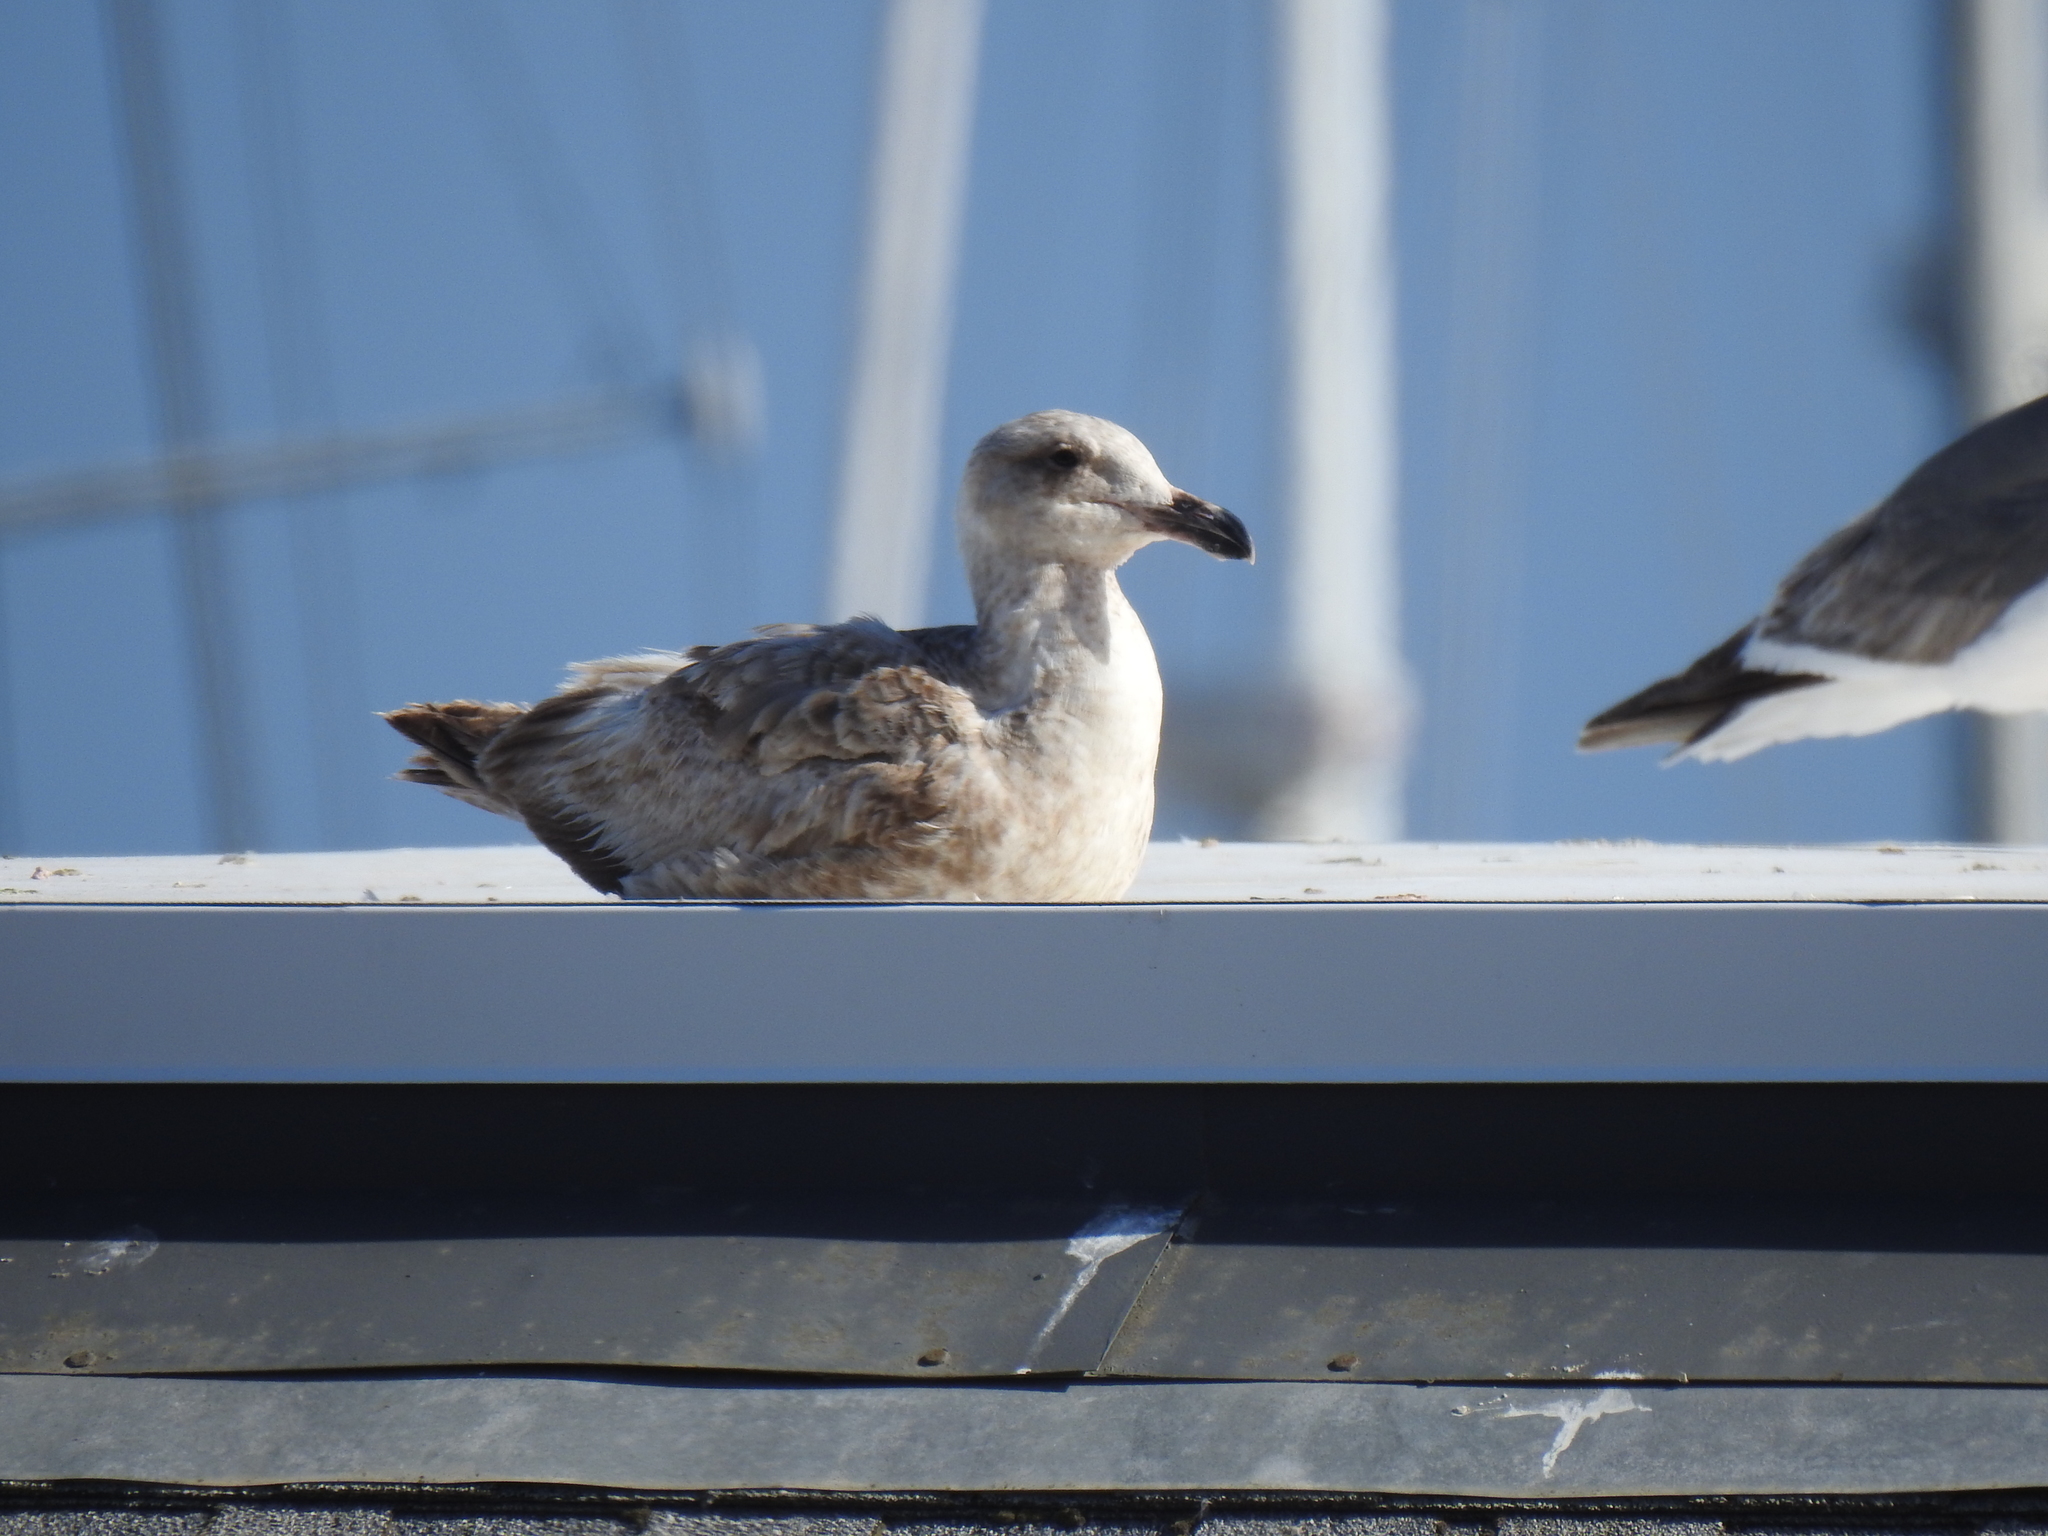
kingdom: Animalia
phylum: Chordata
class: Aves
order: Charadriiformes
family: Laridae
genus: Larus
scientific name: Larus occidentalis
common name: Western gull
